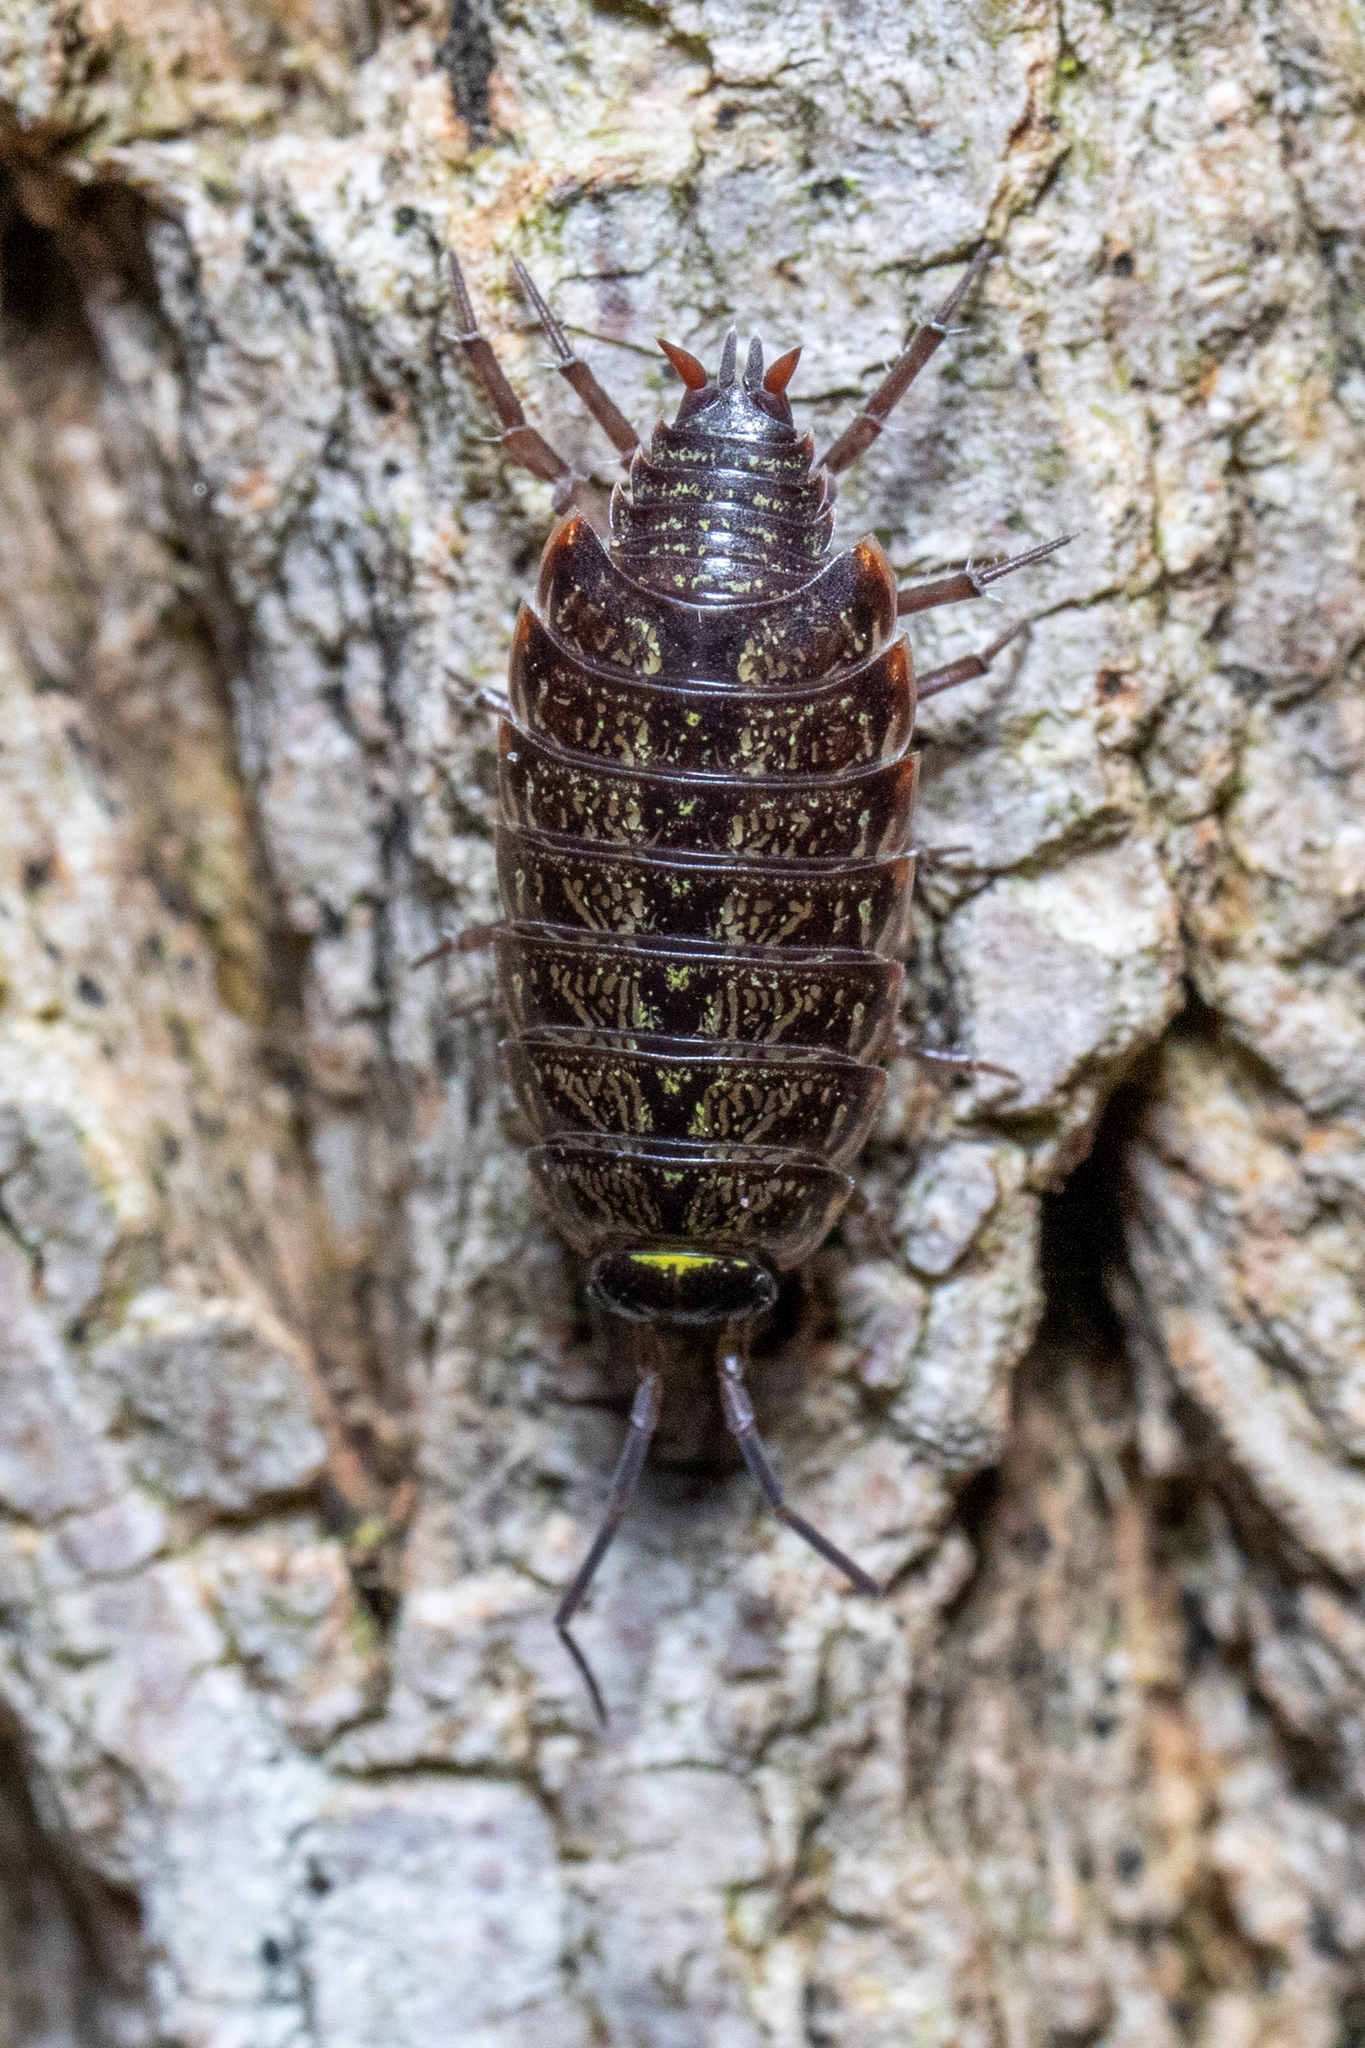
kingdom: Animalia
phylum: Arthropoda
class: Malacostraca
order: Isopoda
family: Philosciidae
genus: Philoscia
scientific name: Philoscia muscorum
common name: Common striped woodlouse
